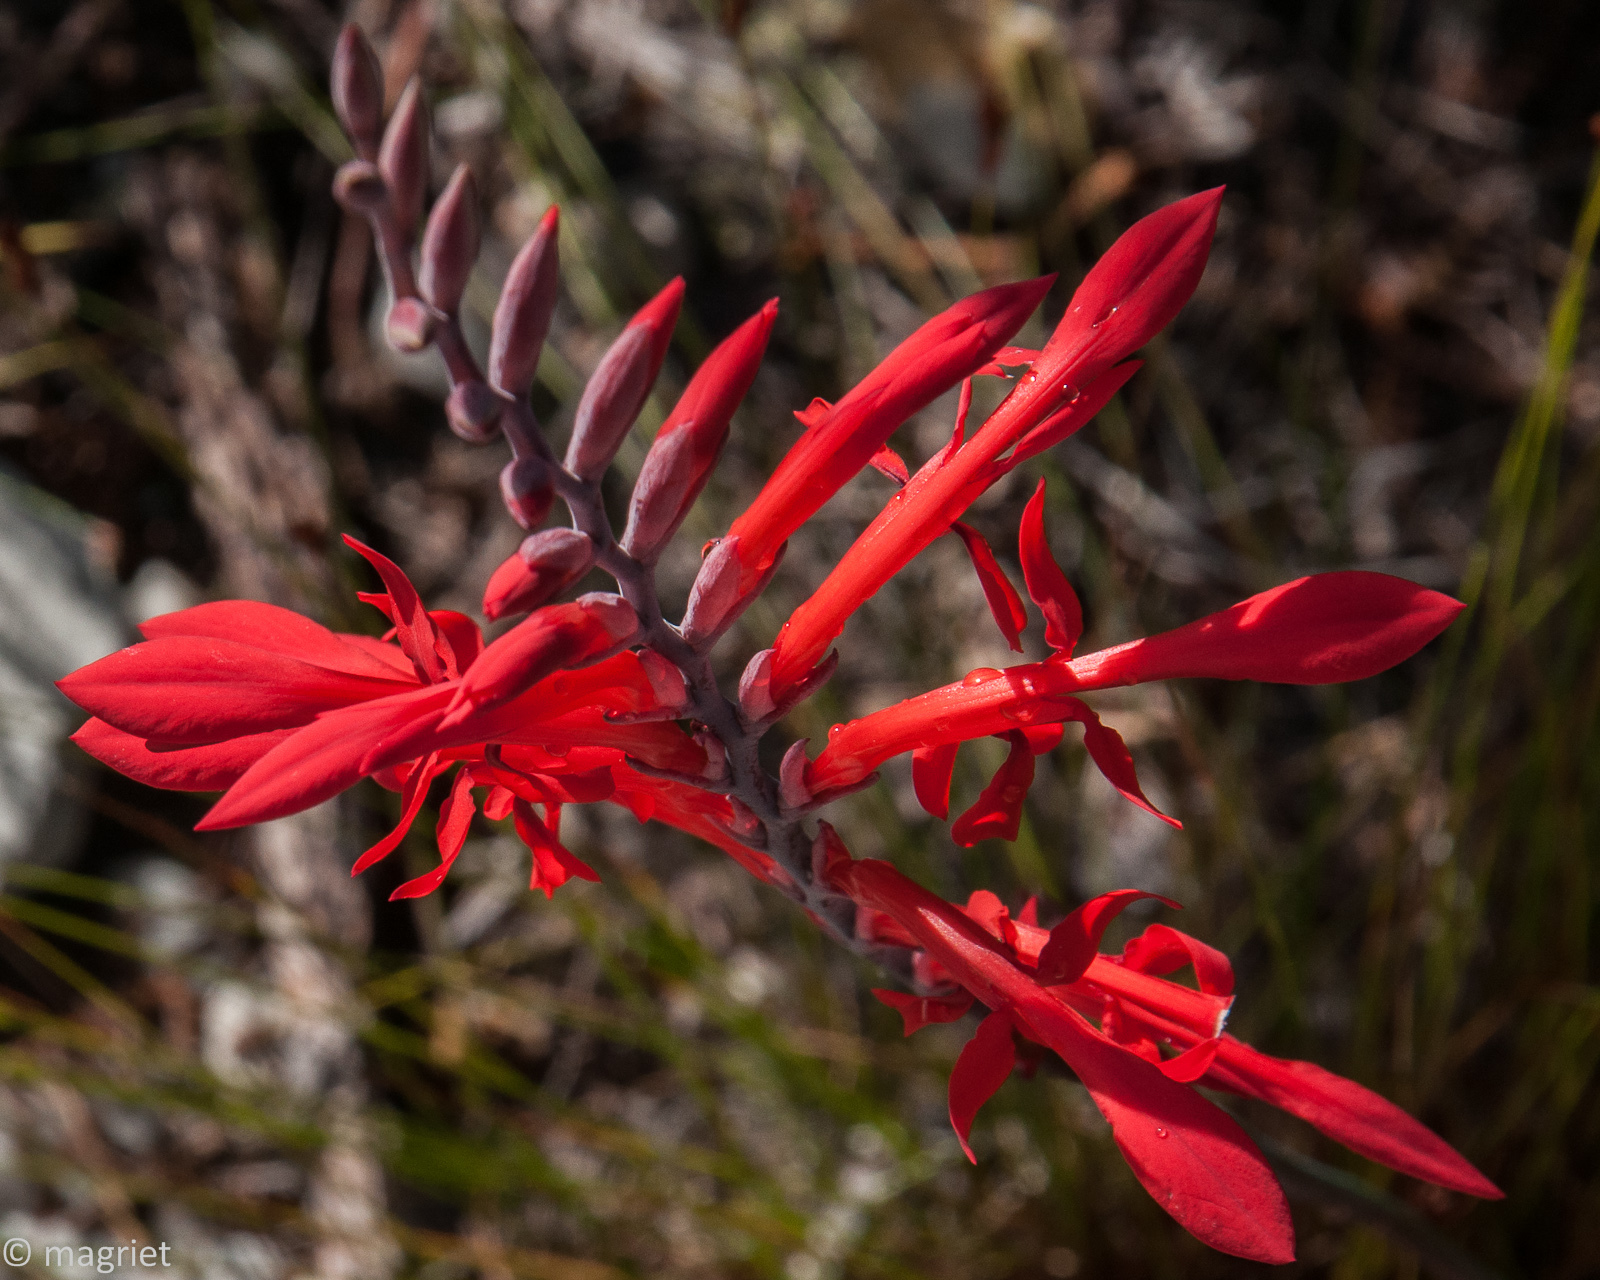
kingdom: Plantae
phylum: Tracheophyta
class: Liliopsida
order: Asparagales
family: Iridaceae
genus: Tritoniopsis
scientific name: Tritoniopsis caffra
